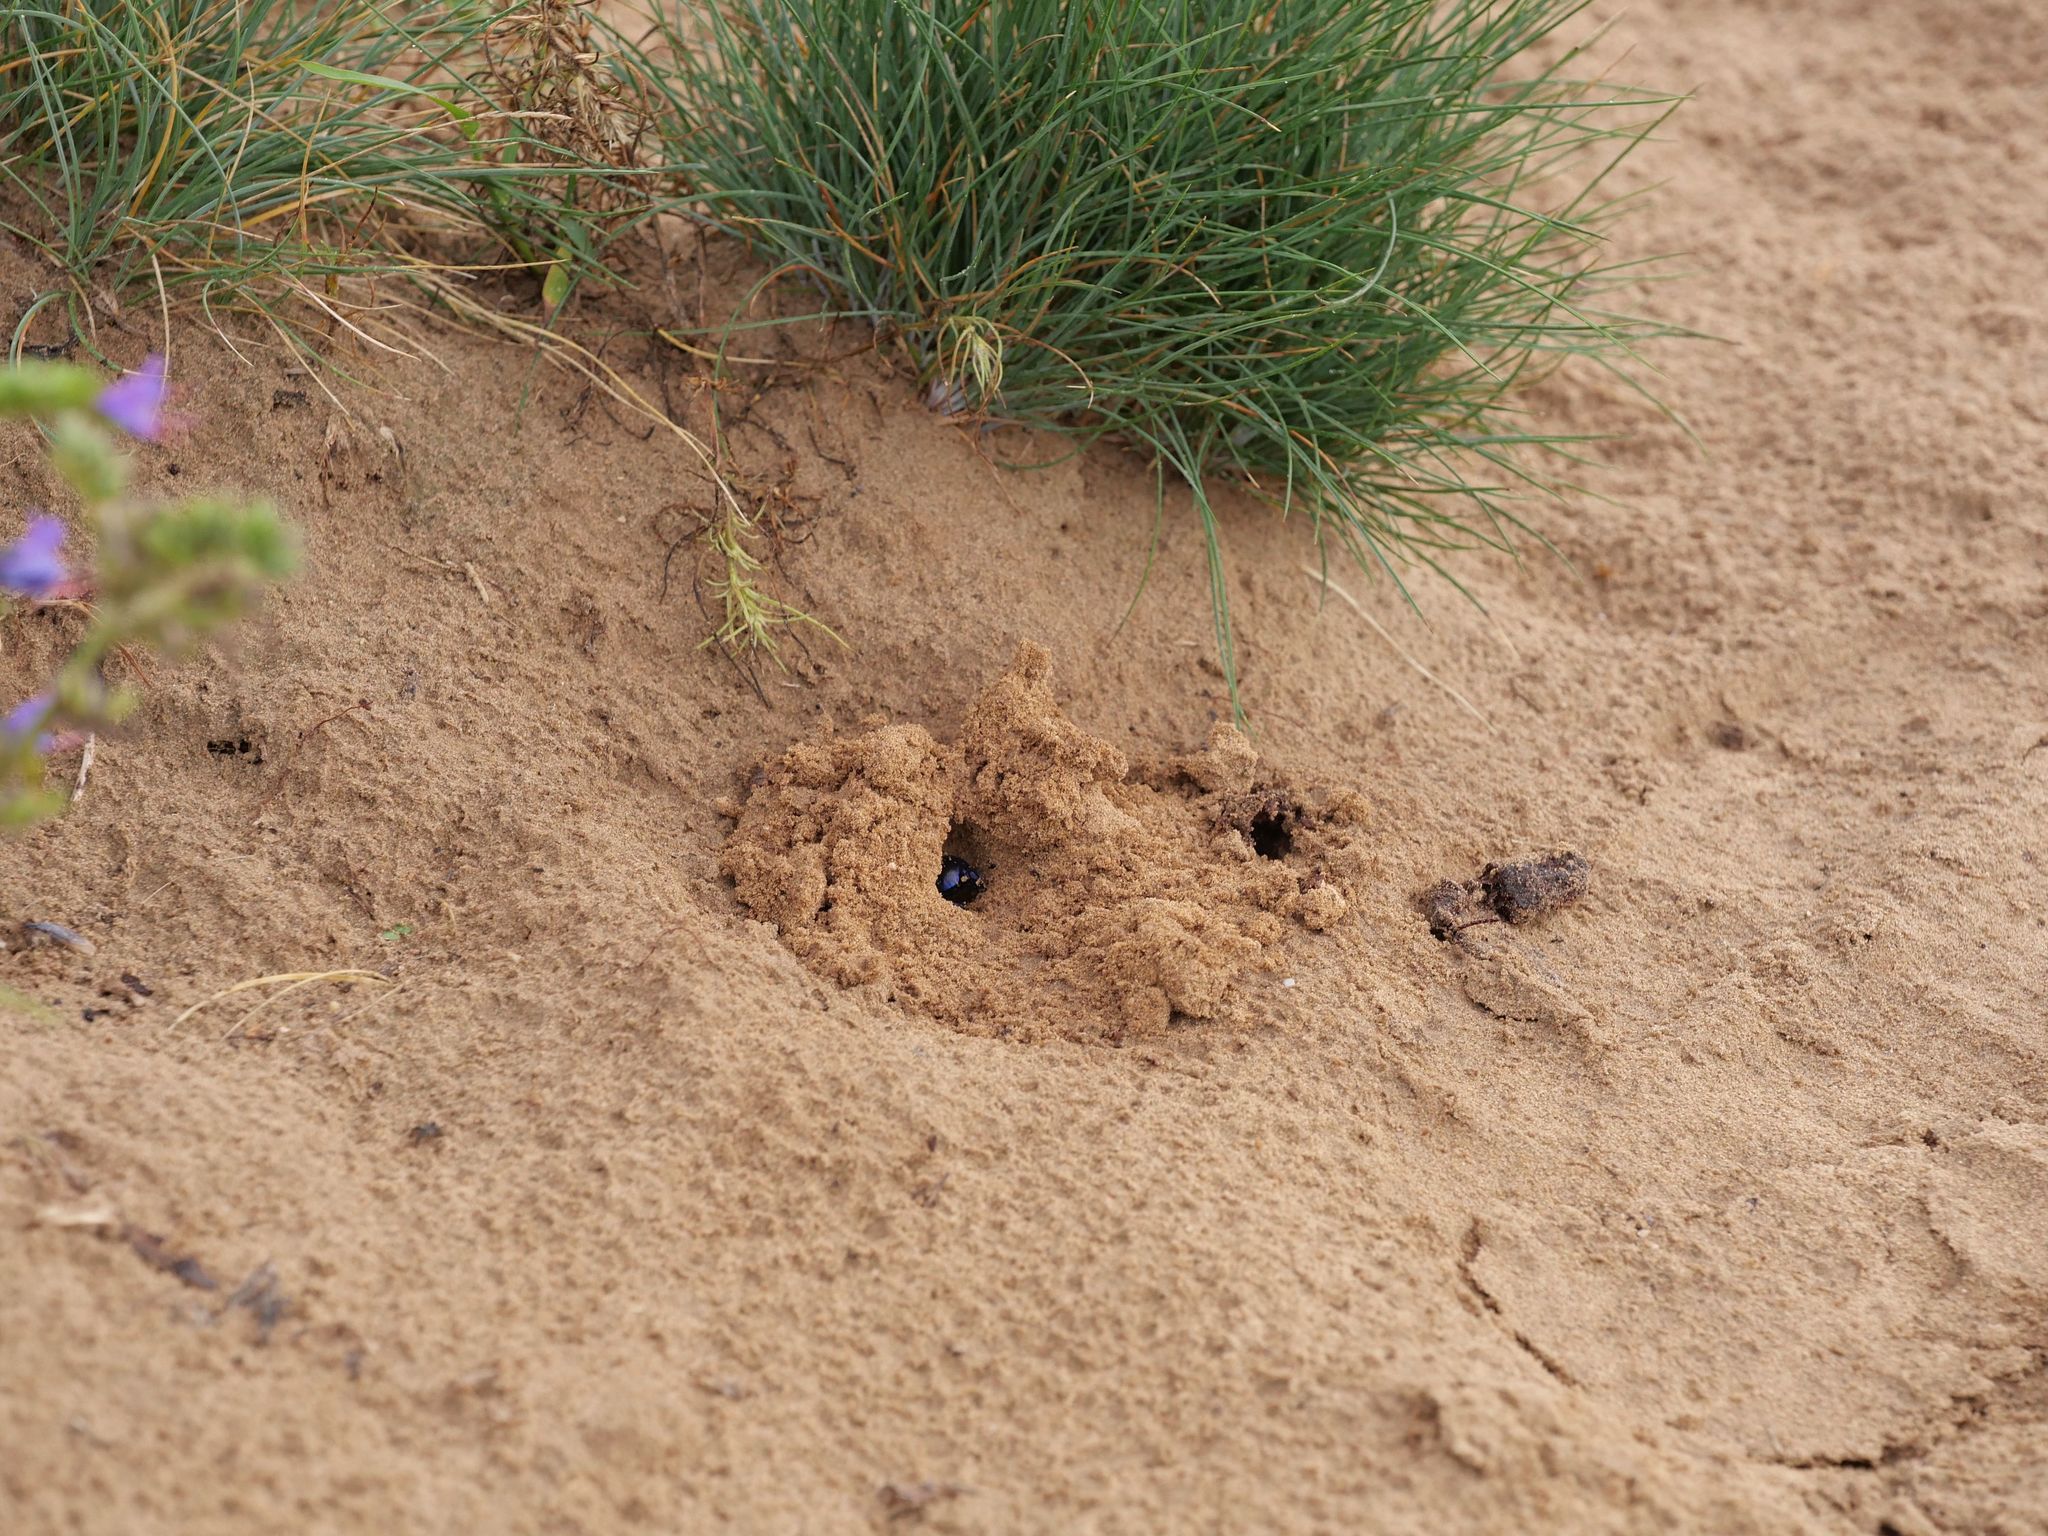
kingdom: Animalia
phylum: Arthropoda
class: Insecta
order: Coleoptera
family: Geotrupidae
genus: Trypocopris
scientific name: Trypocopris vernalis
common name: Spring dumbledor
